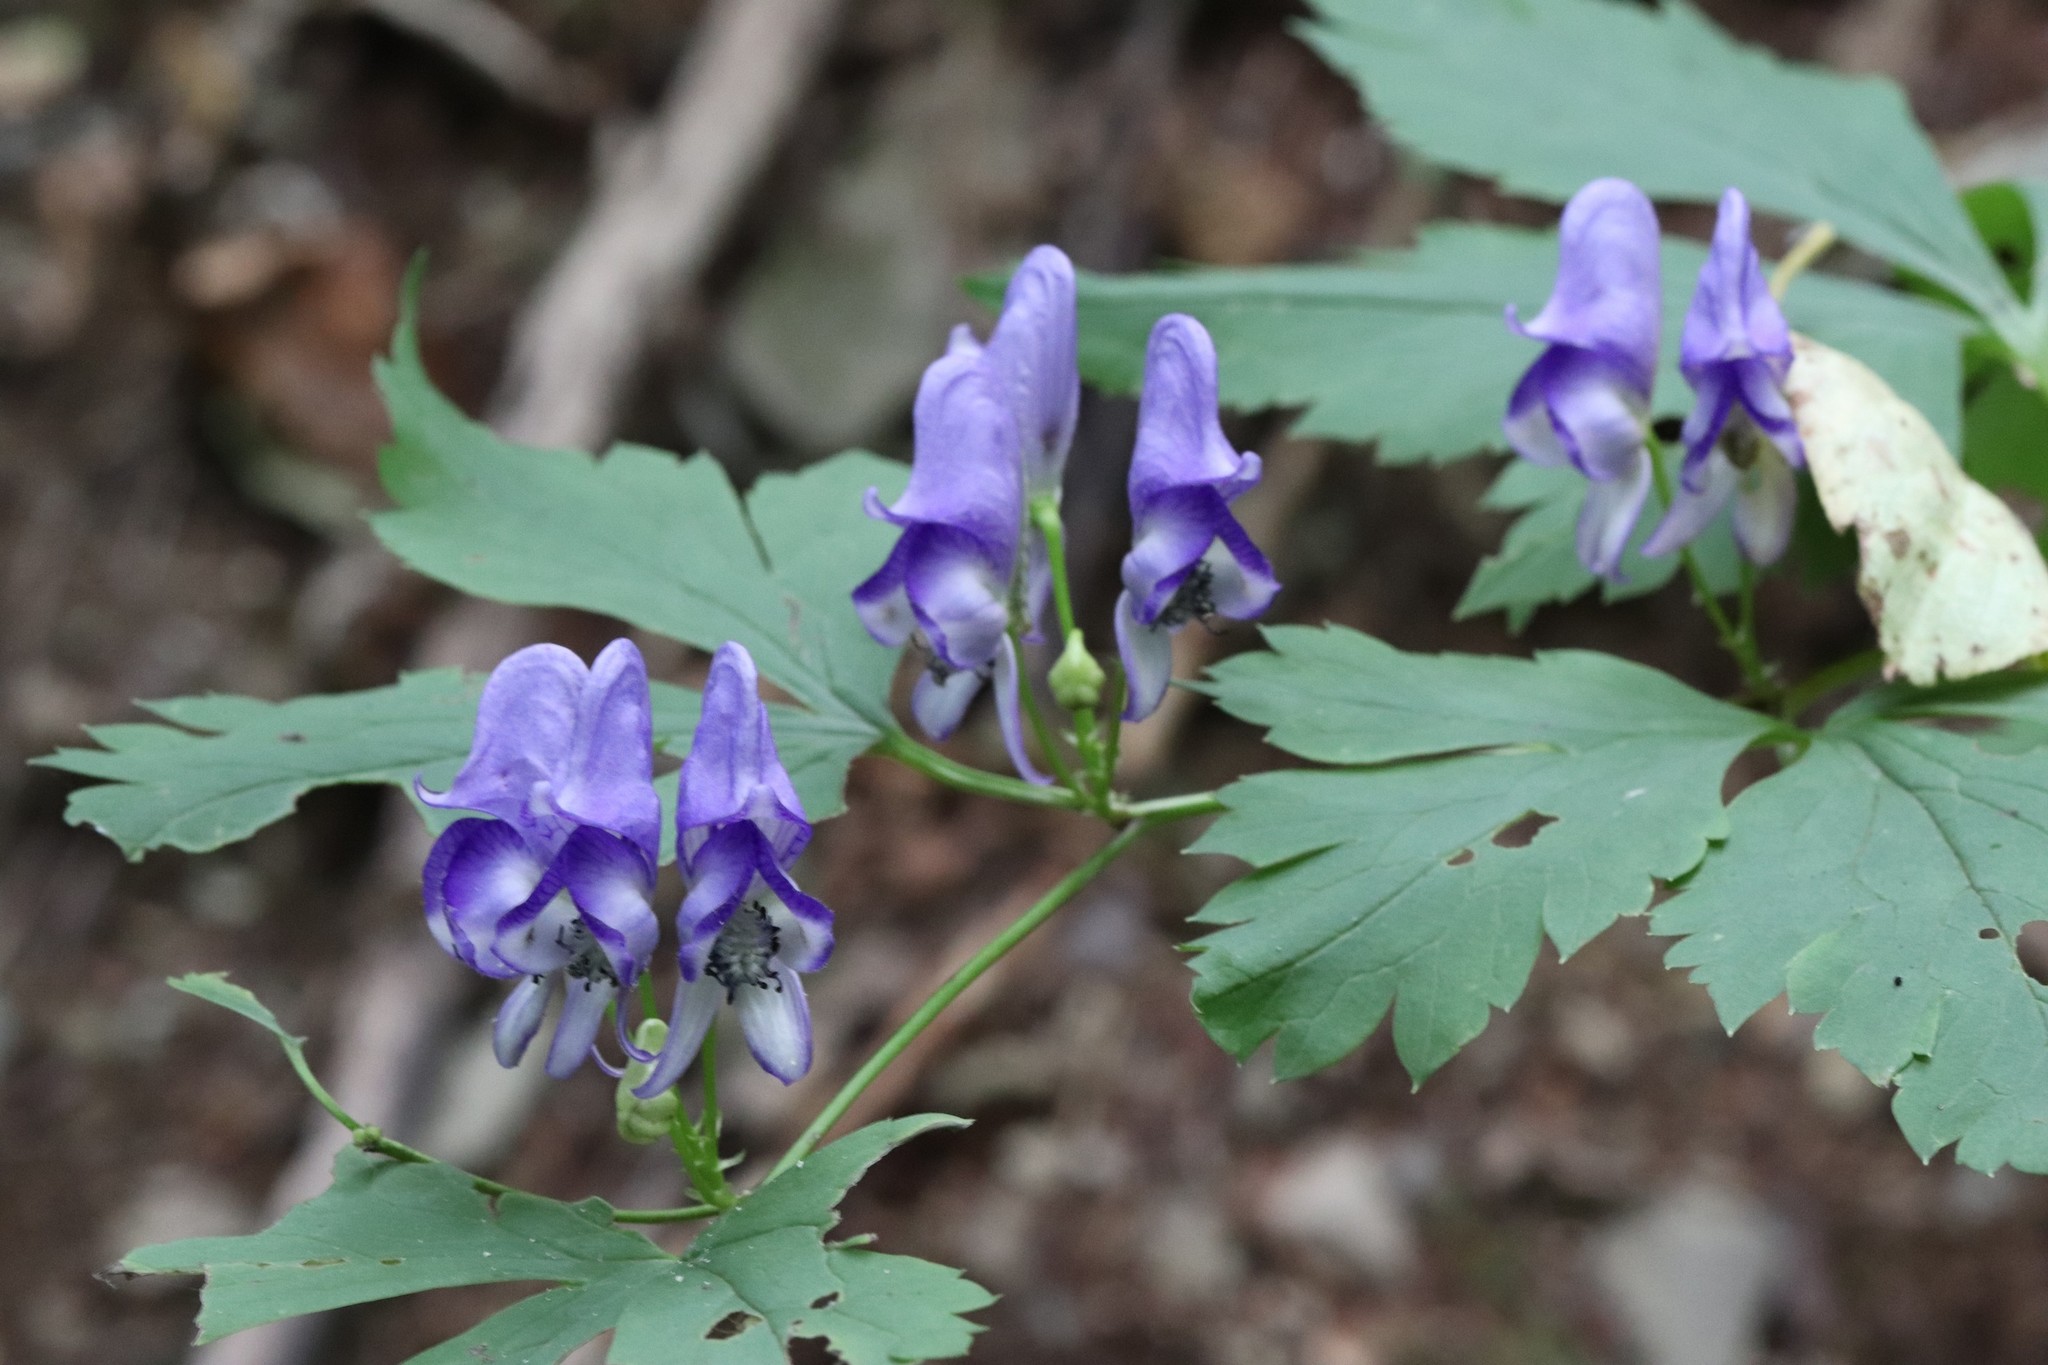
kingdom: Plantae
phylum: Tracheophyta
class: Magnoliopsida
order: Ranunculales
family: Ranunculaceae
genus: Aconitum
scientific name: Aconitum sczukinii
